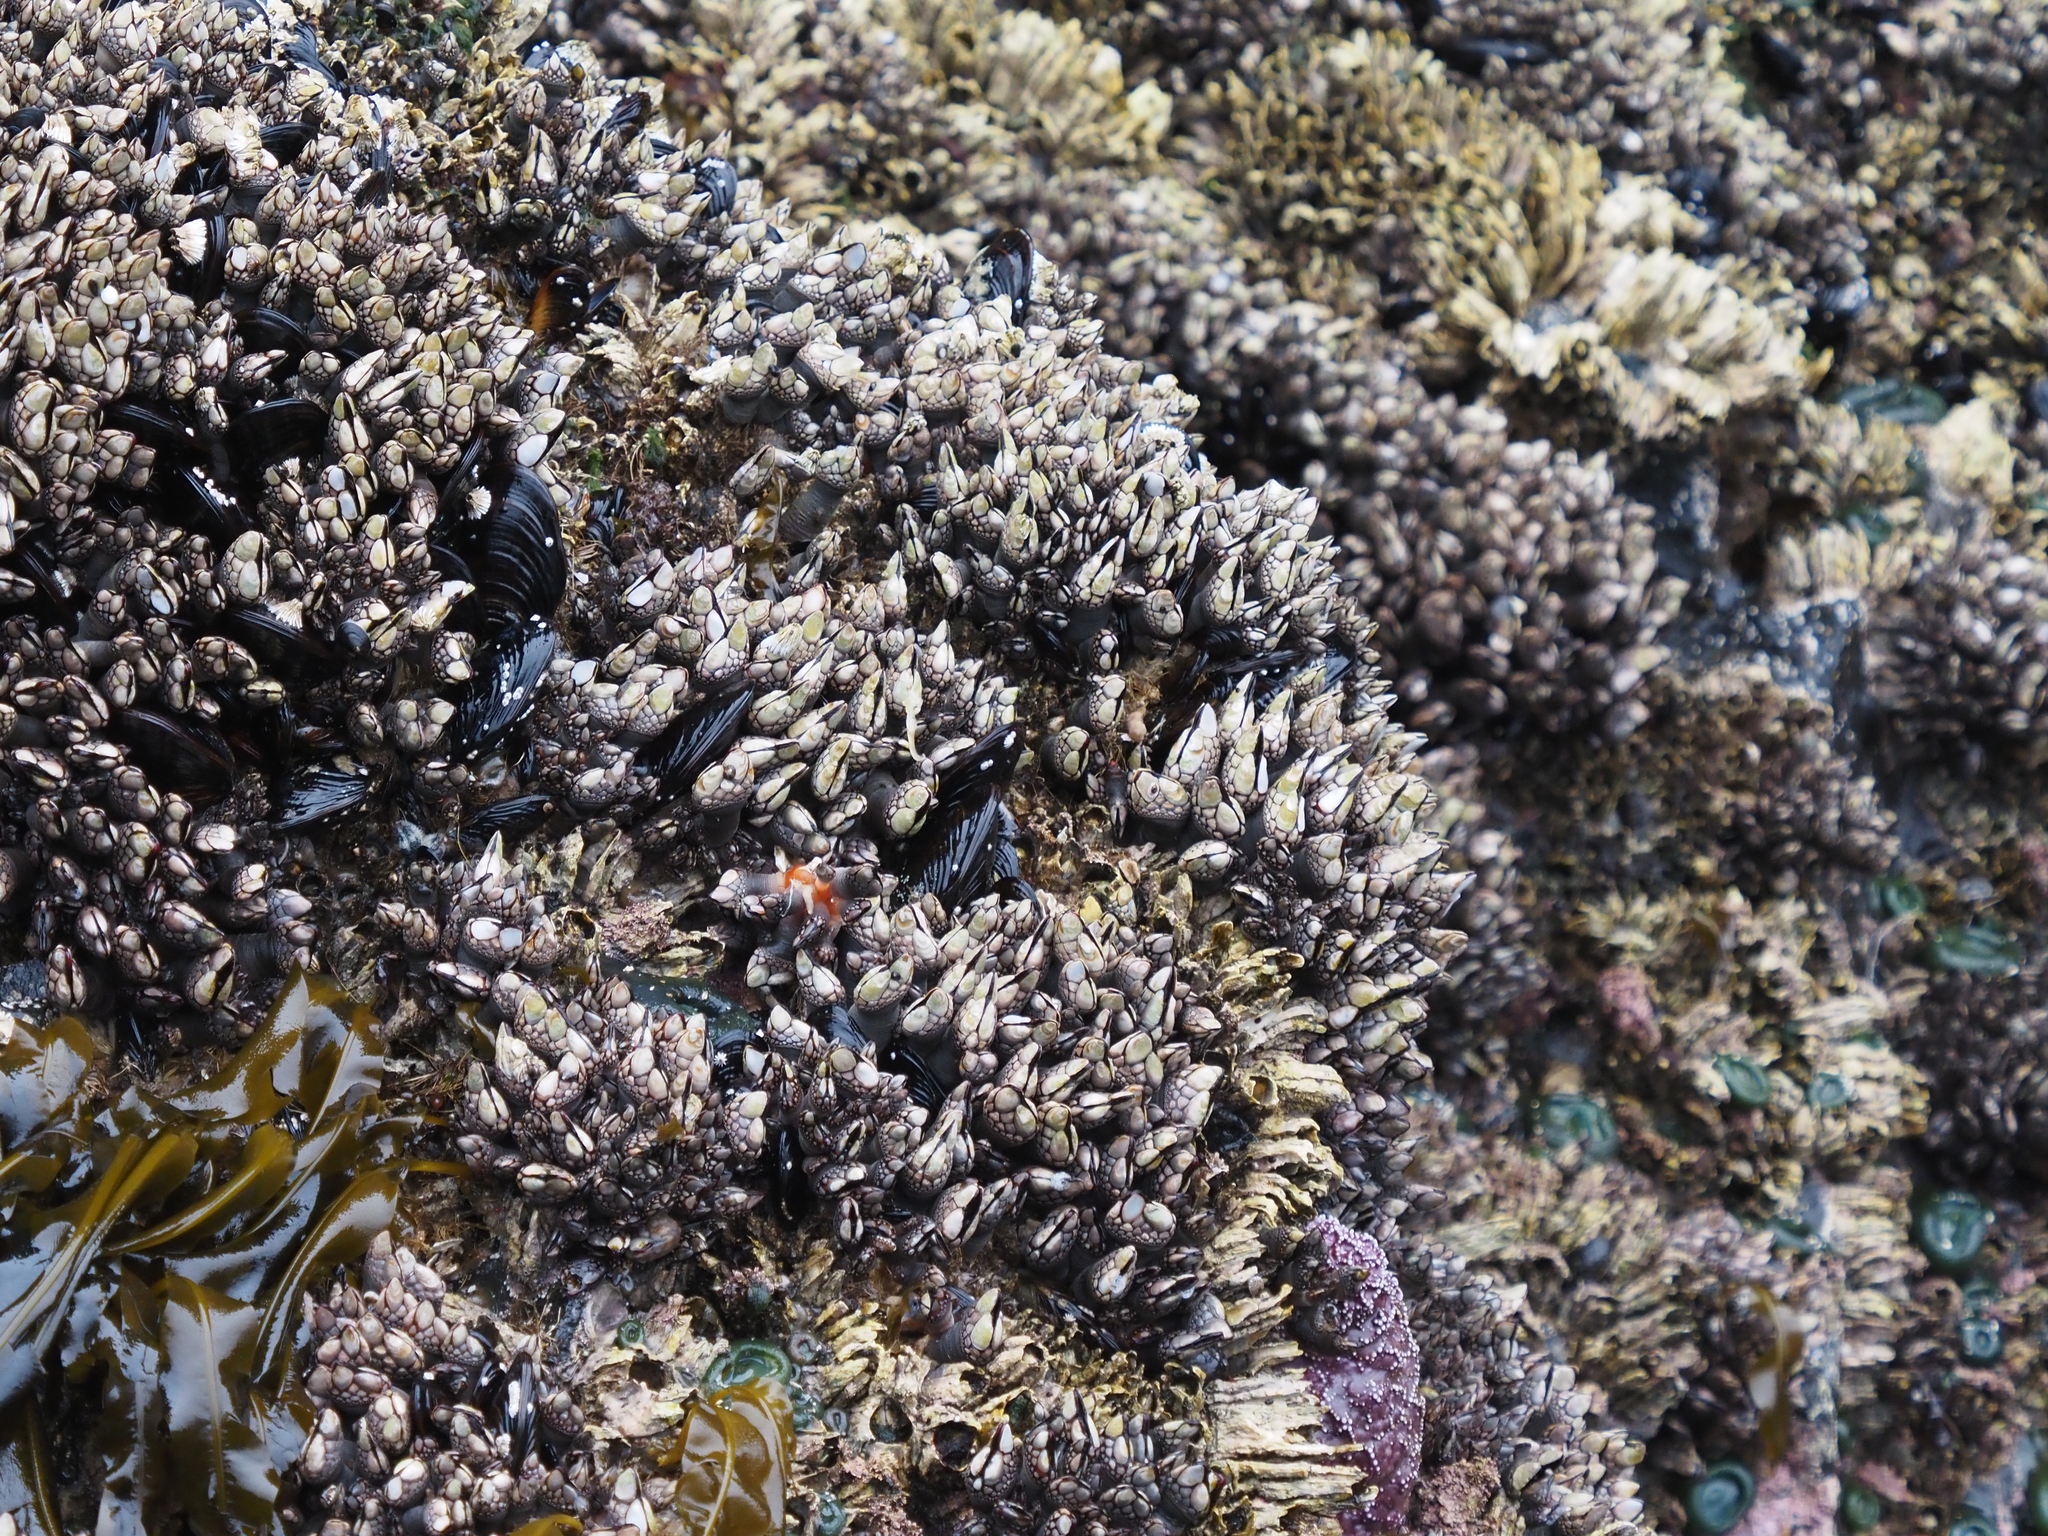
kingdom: Animalia
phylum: Arthropoda
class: Maxillopoda
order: Pedunculata
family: Pollicipedidae
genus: Pollicipes
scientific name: Pollicipes polymerus
